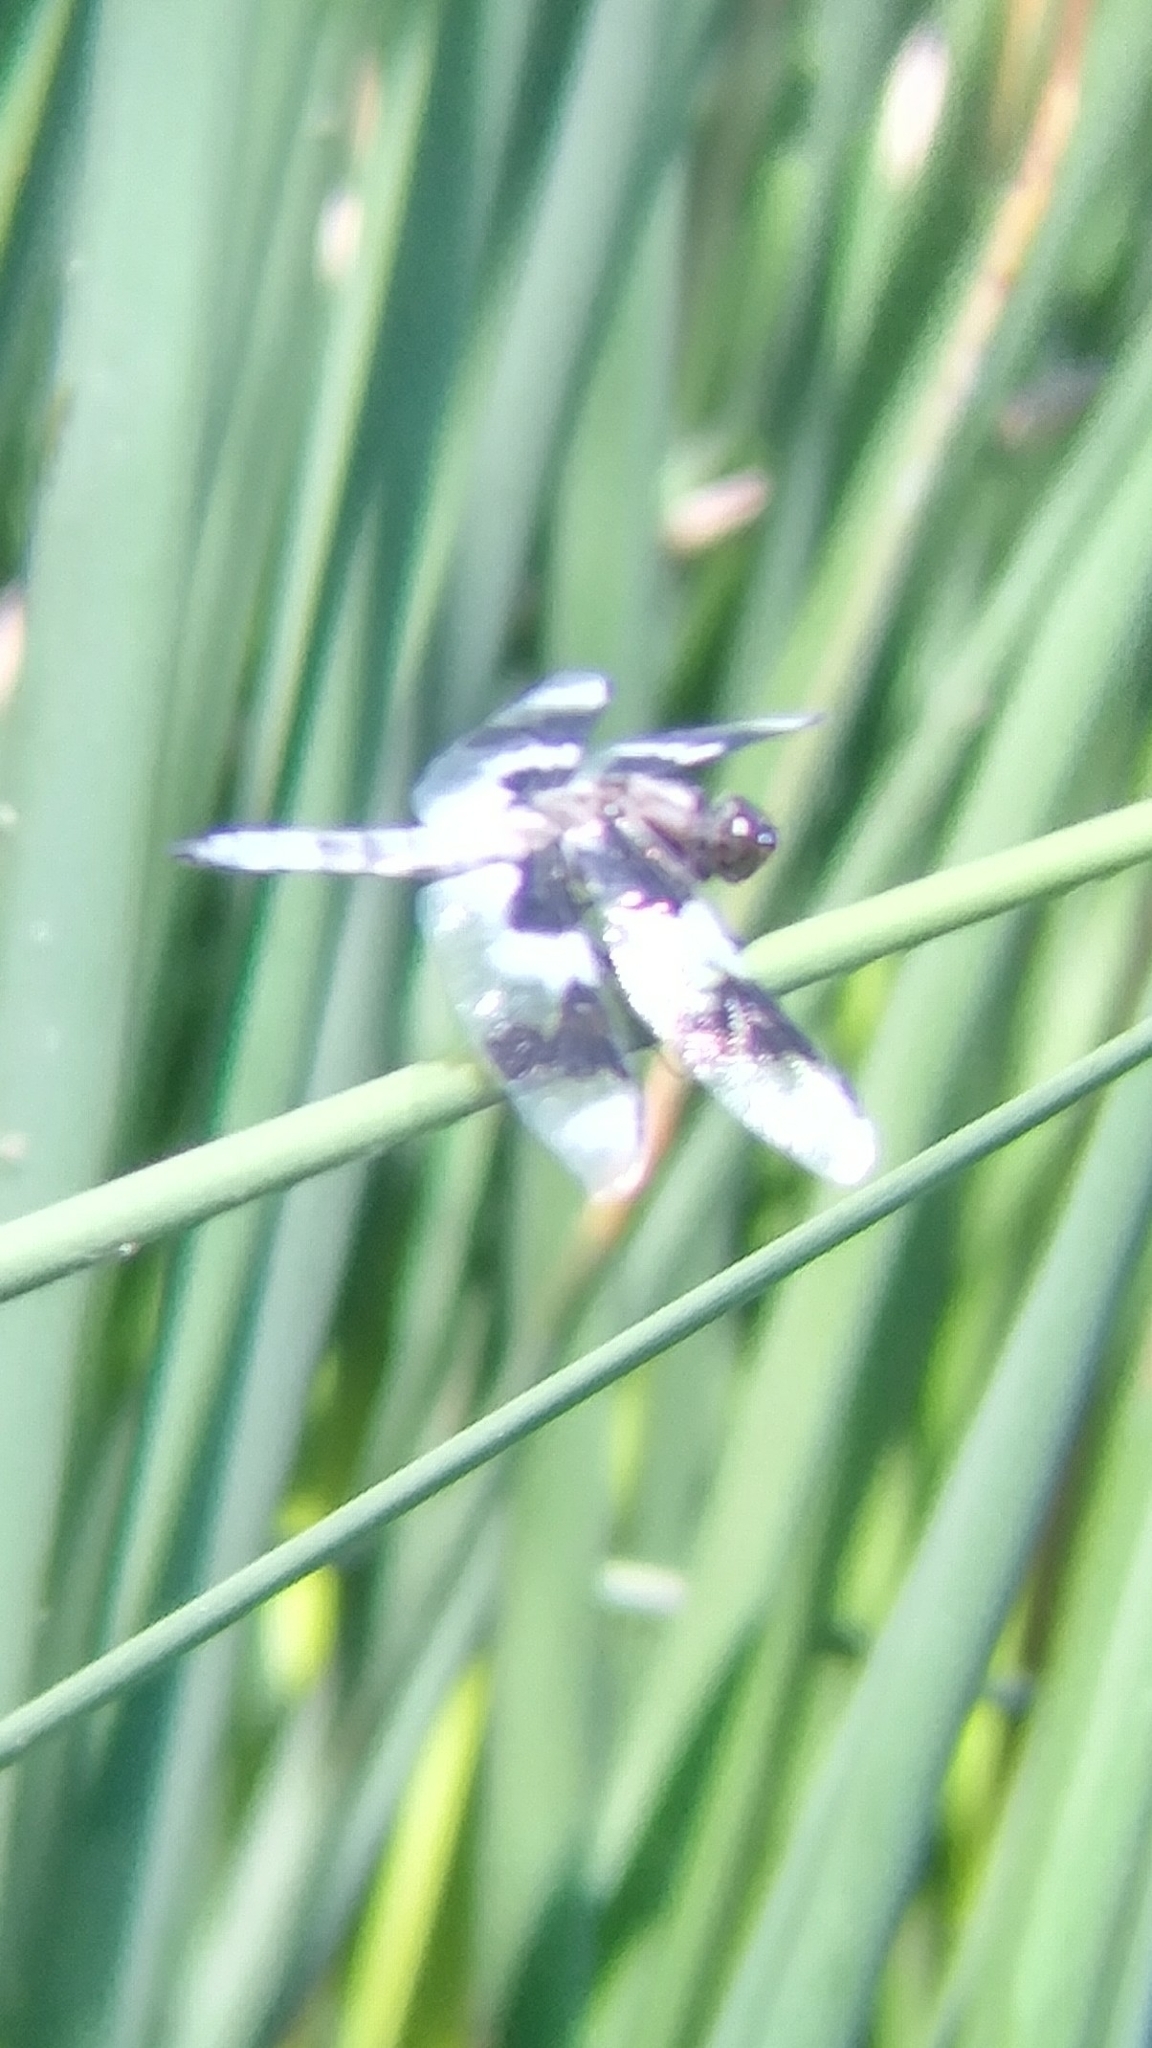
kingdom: Animalia
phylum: Arthropoda
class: Insecta
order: Odonata
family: Libellulidae
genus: Libellula
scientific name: Libellula forensis
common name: Eight-spotted skimmer
